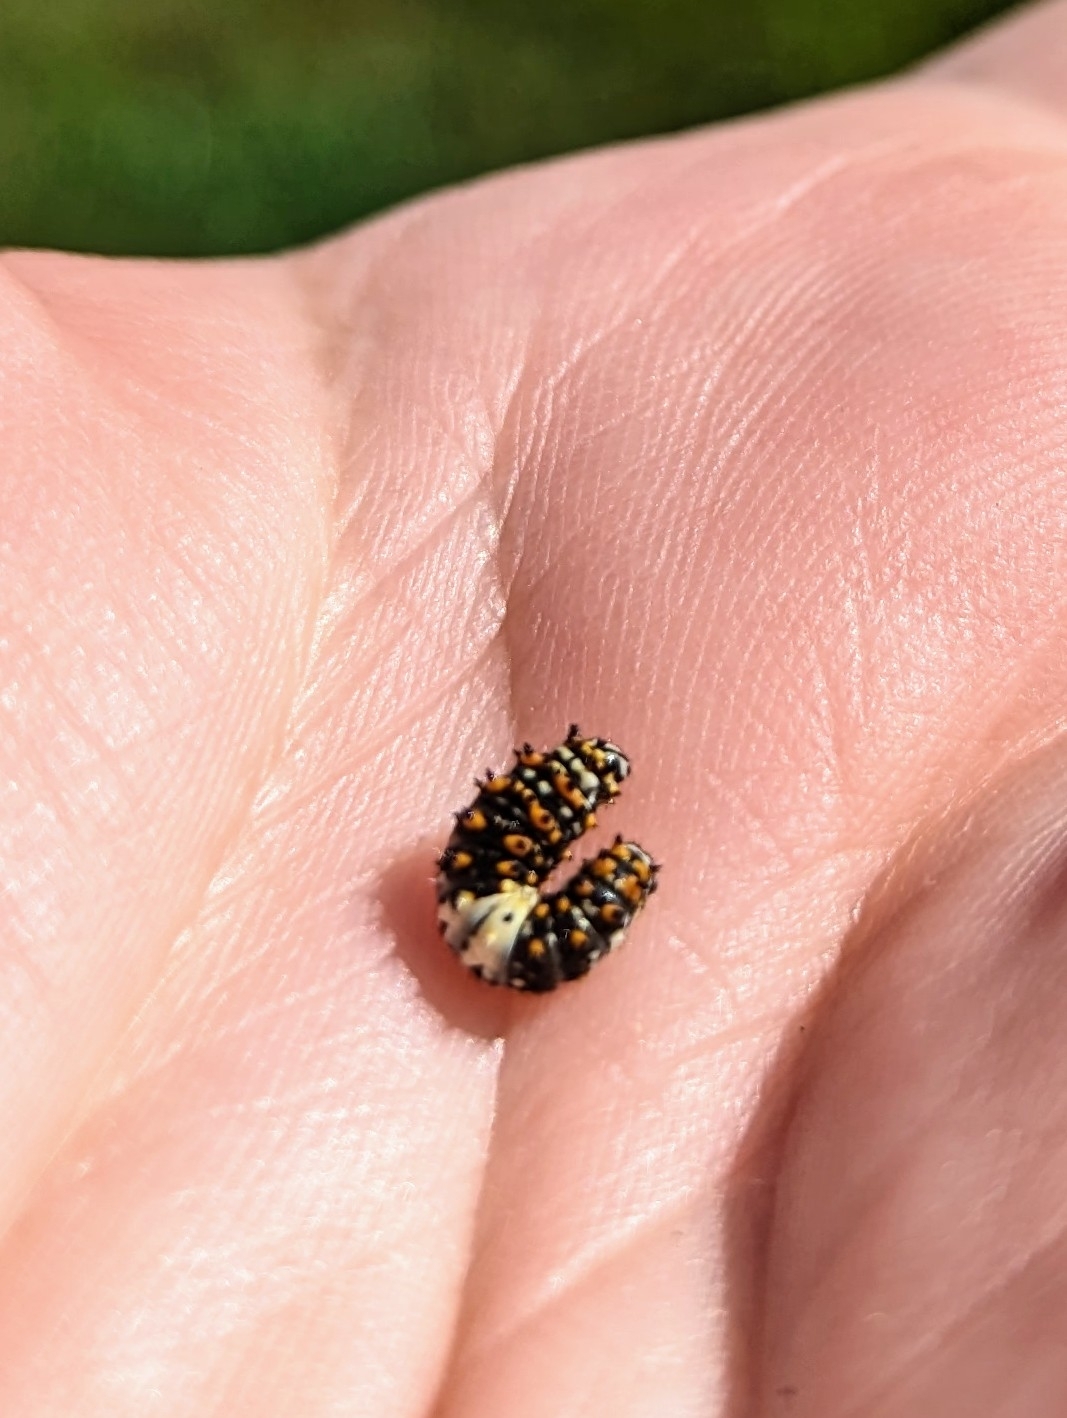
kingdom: Animalia
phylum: Arthropoda
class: Insecta
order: Lepidoptera
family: Papilionidae
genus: Papilio
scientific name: Papilio polyxenes
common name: Black swallowtail
